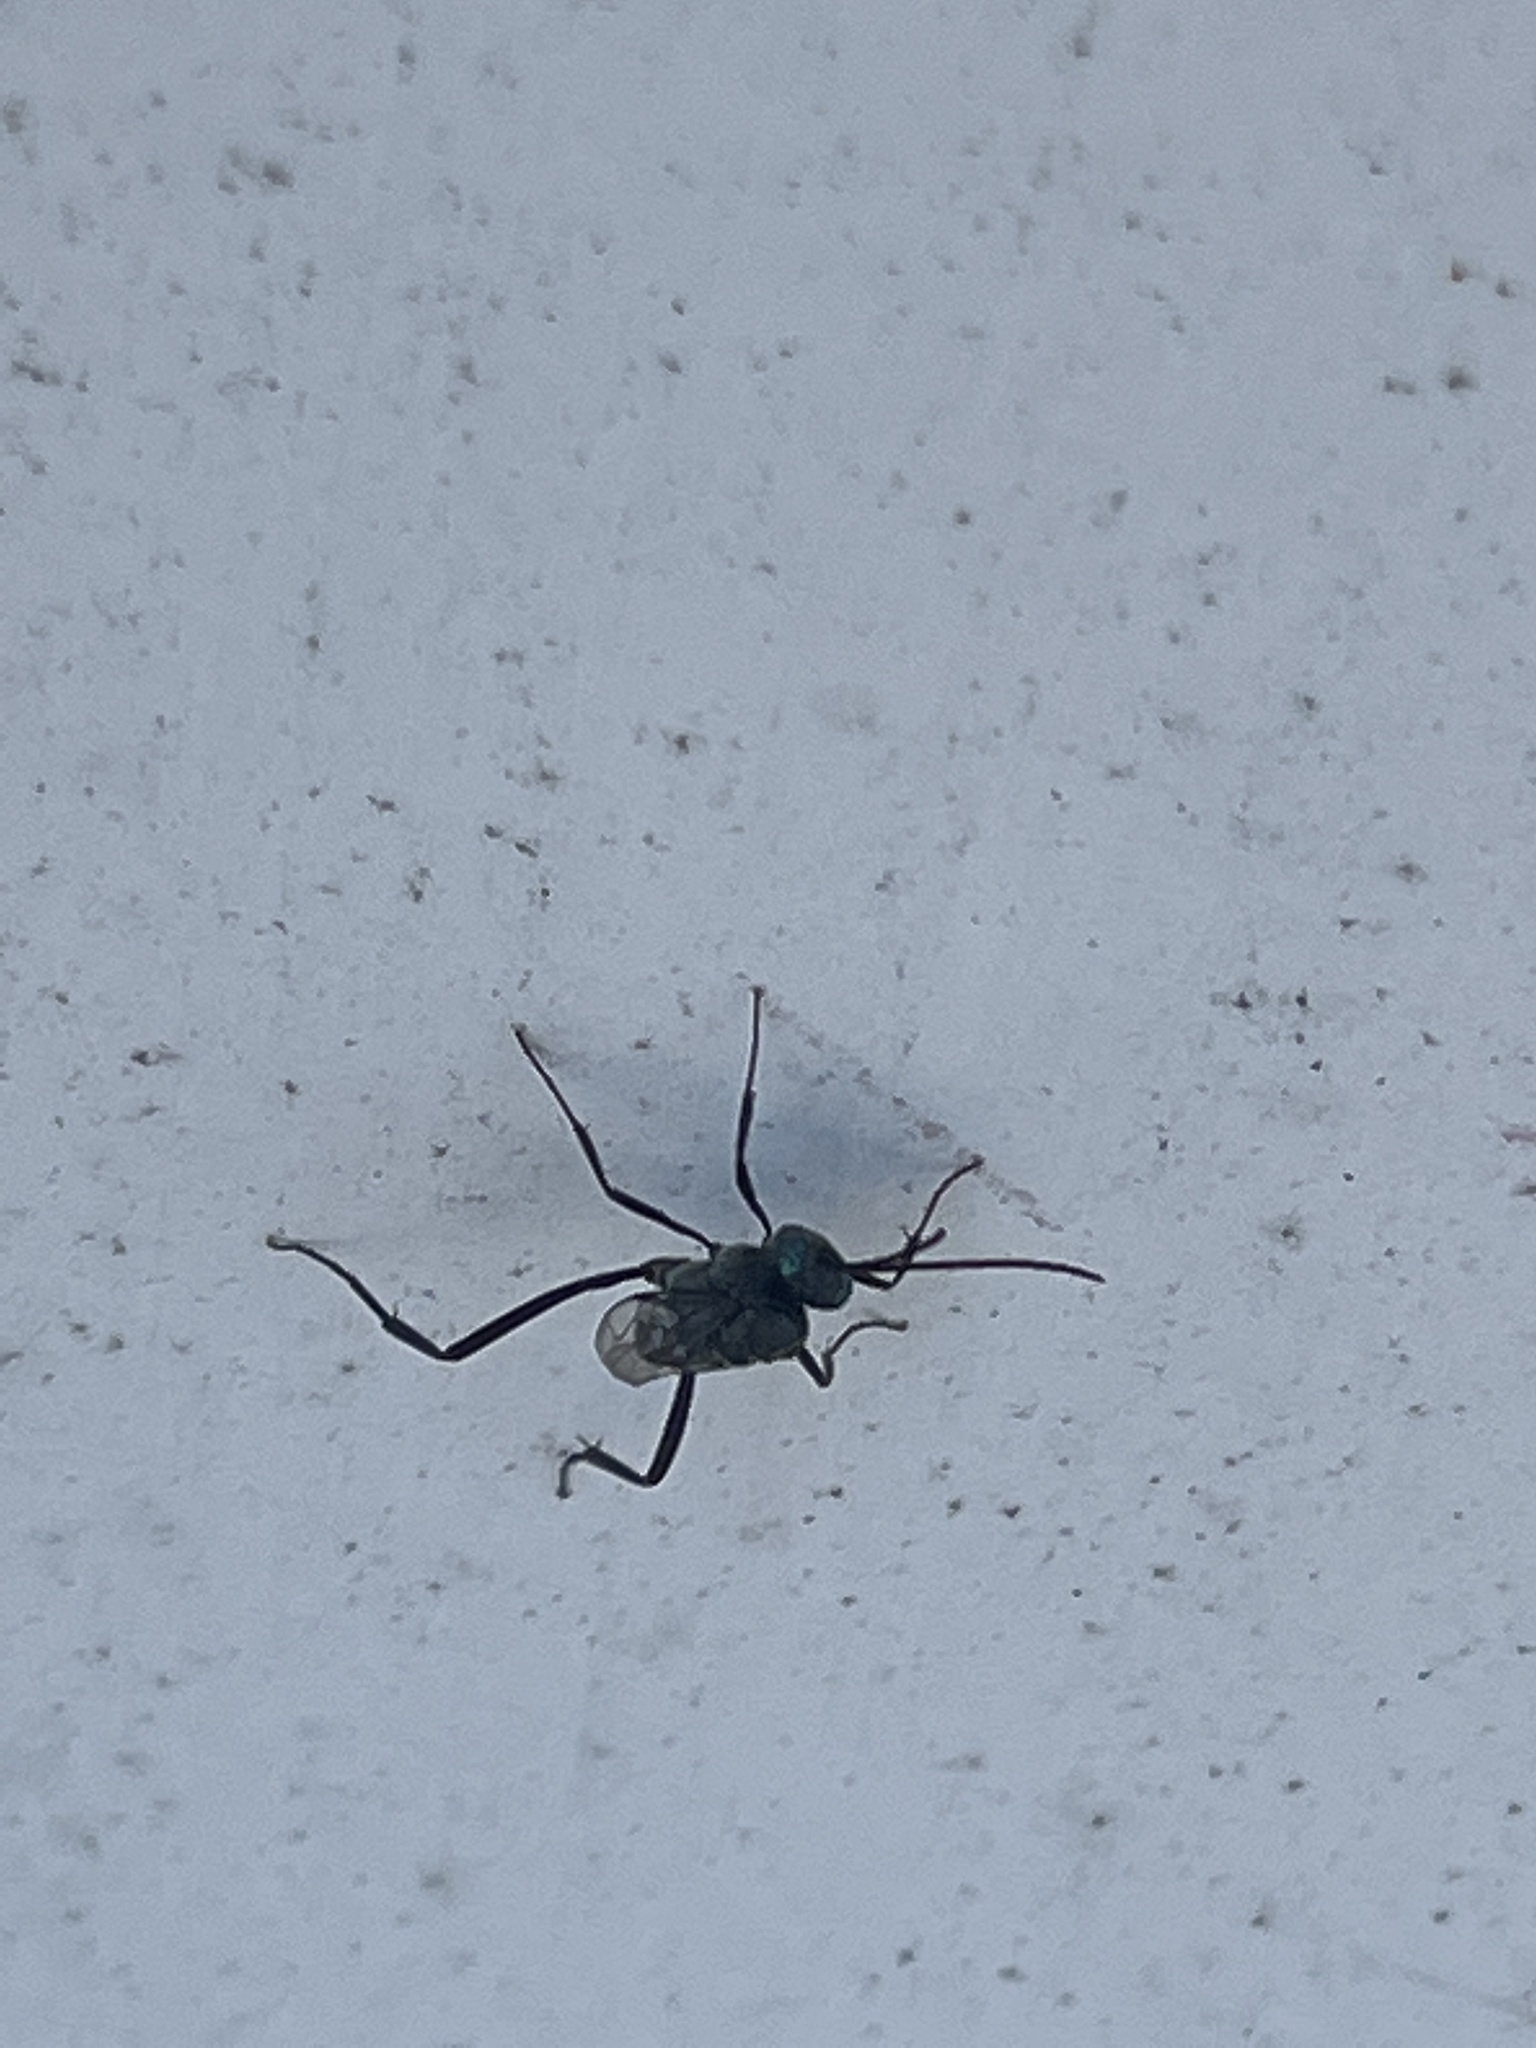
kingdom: Animalia
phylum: Arthropoda
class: Insecta
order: Hymenoptera
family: Evaniidae
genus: Evania
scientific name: Evania appendigaster
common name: Ensign wasp
